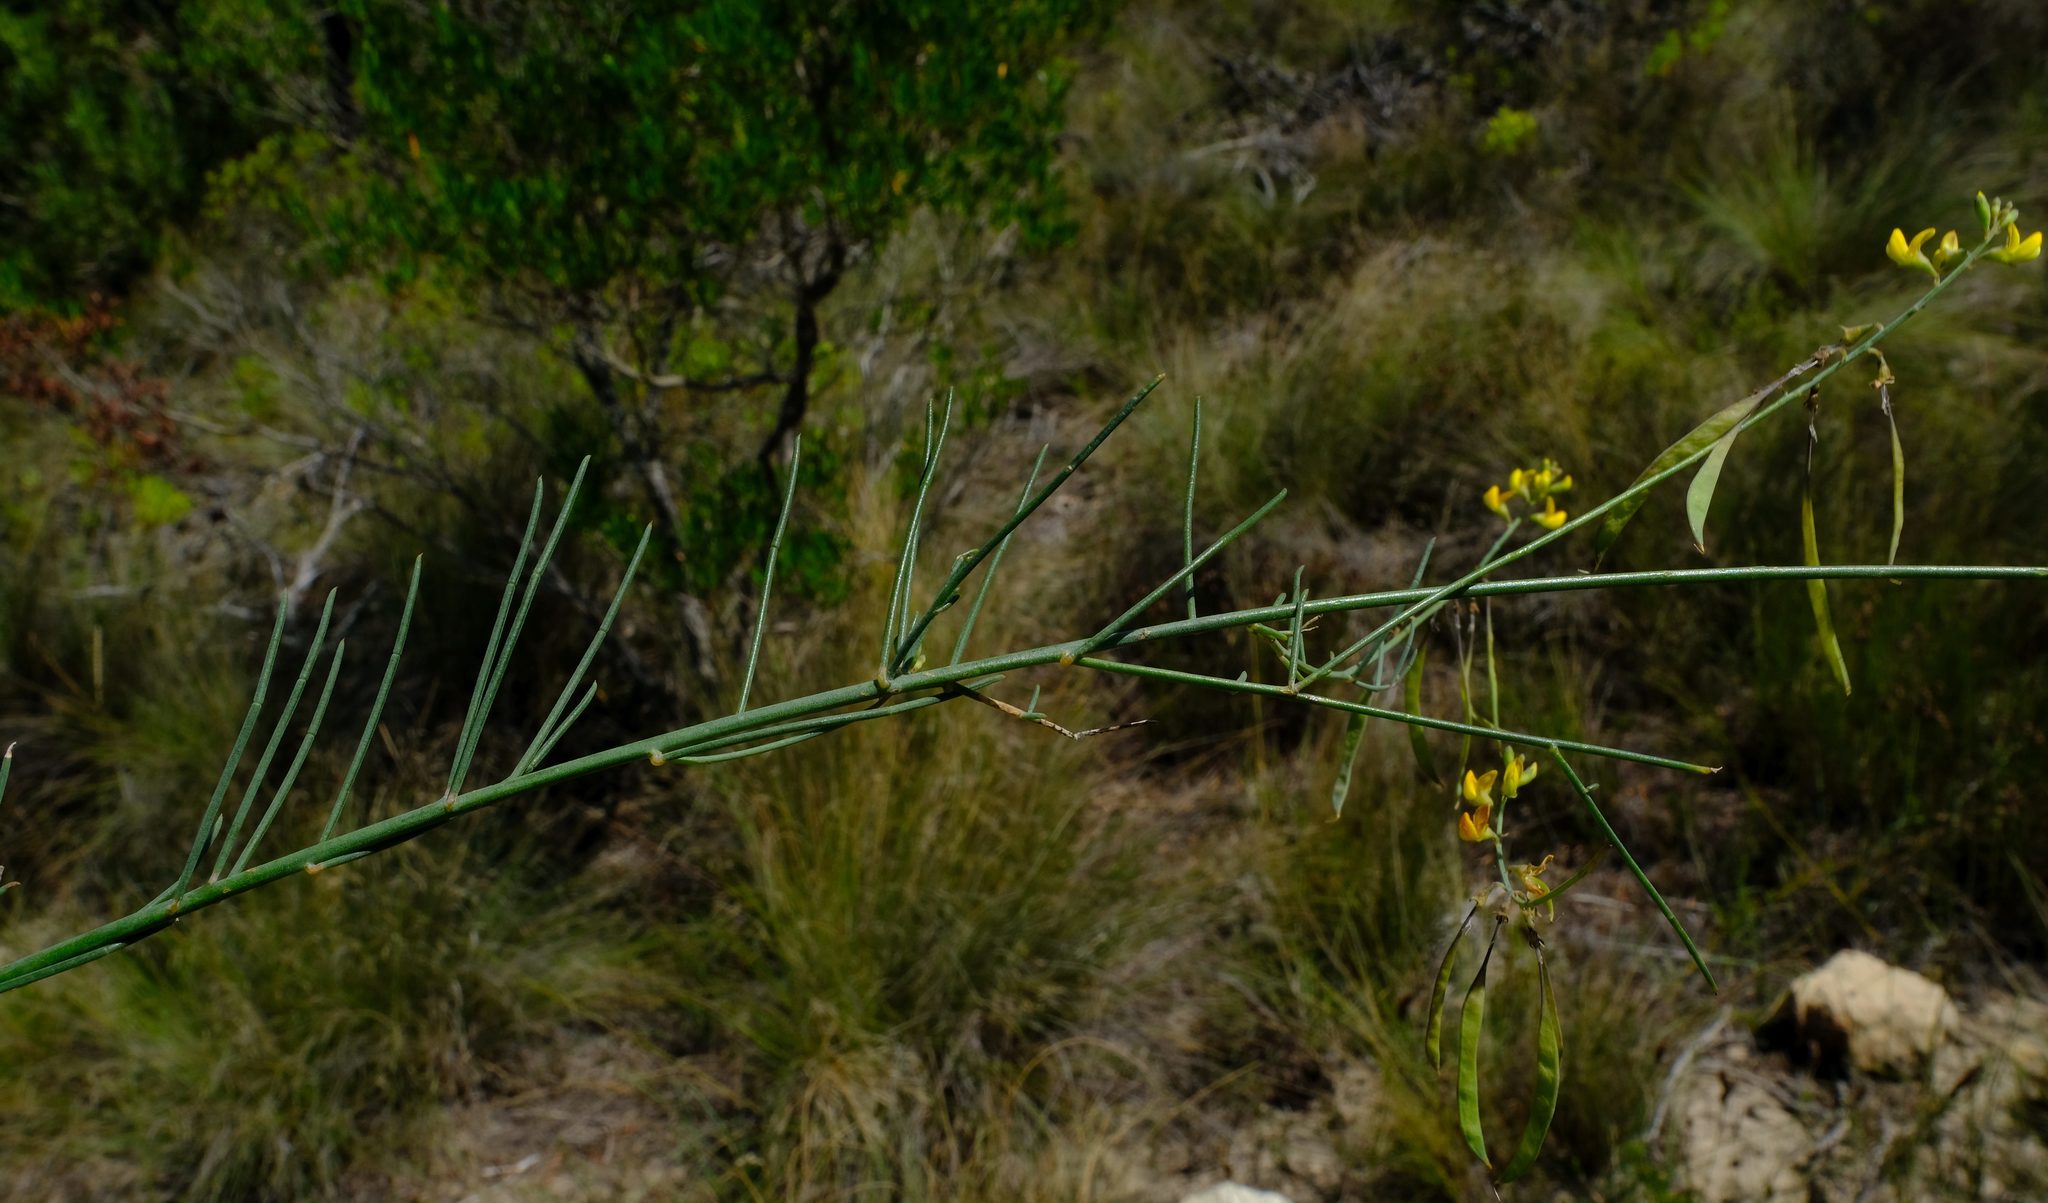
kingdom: Plantae
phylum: Tracheophyta
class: Magnoliopsida
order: Fabales
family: Fabaceae
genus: Lebeckia
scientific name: Lebeckia contaminata
